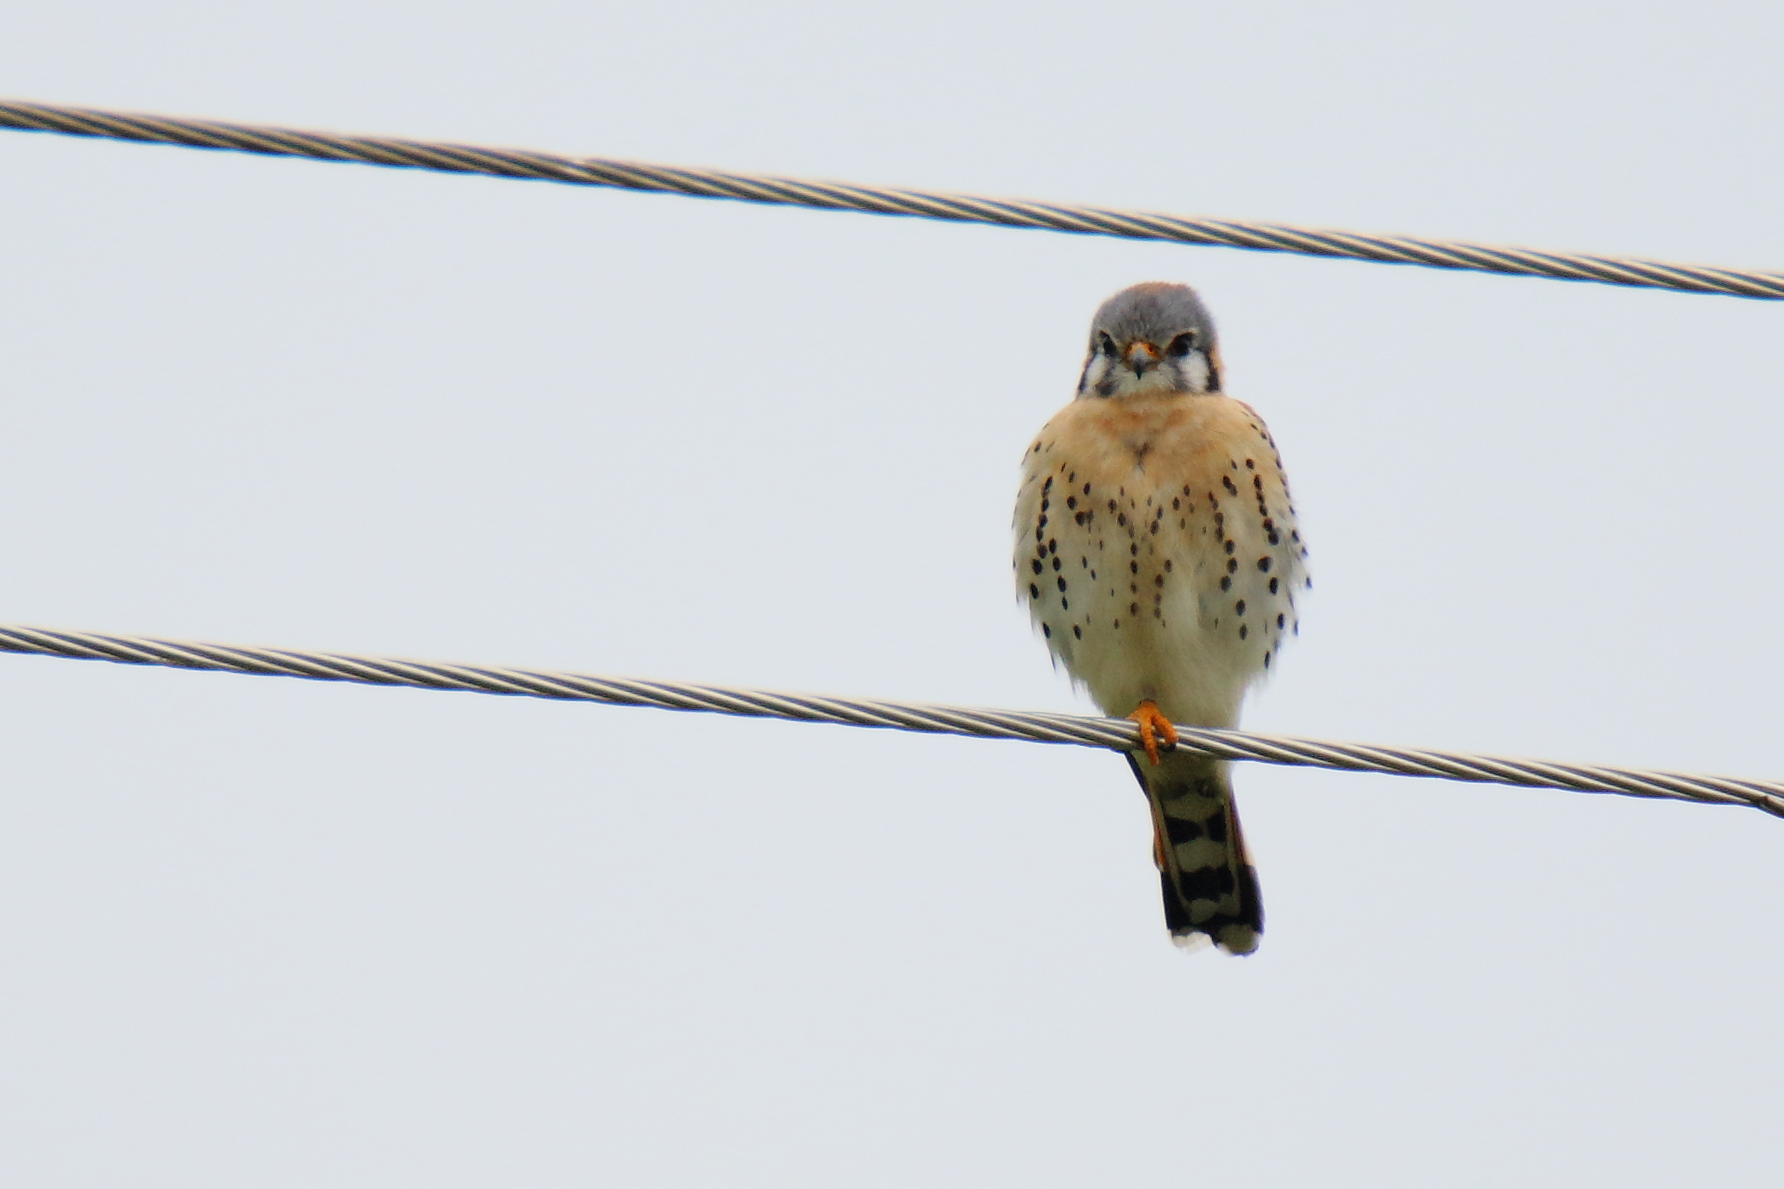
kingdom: Animalia
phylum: Chordata
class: Aves
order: Falconiformes
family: Falconidae
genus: Falco
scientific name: Falco sparverius
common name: American kestrel
